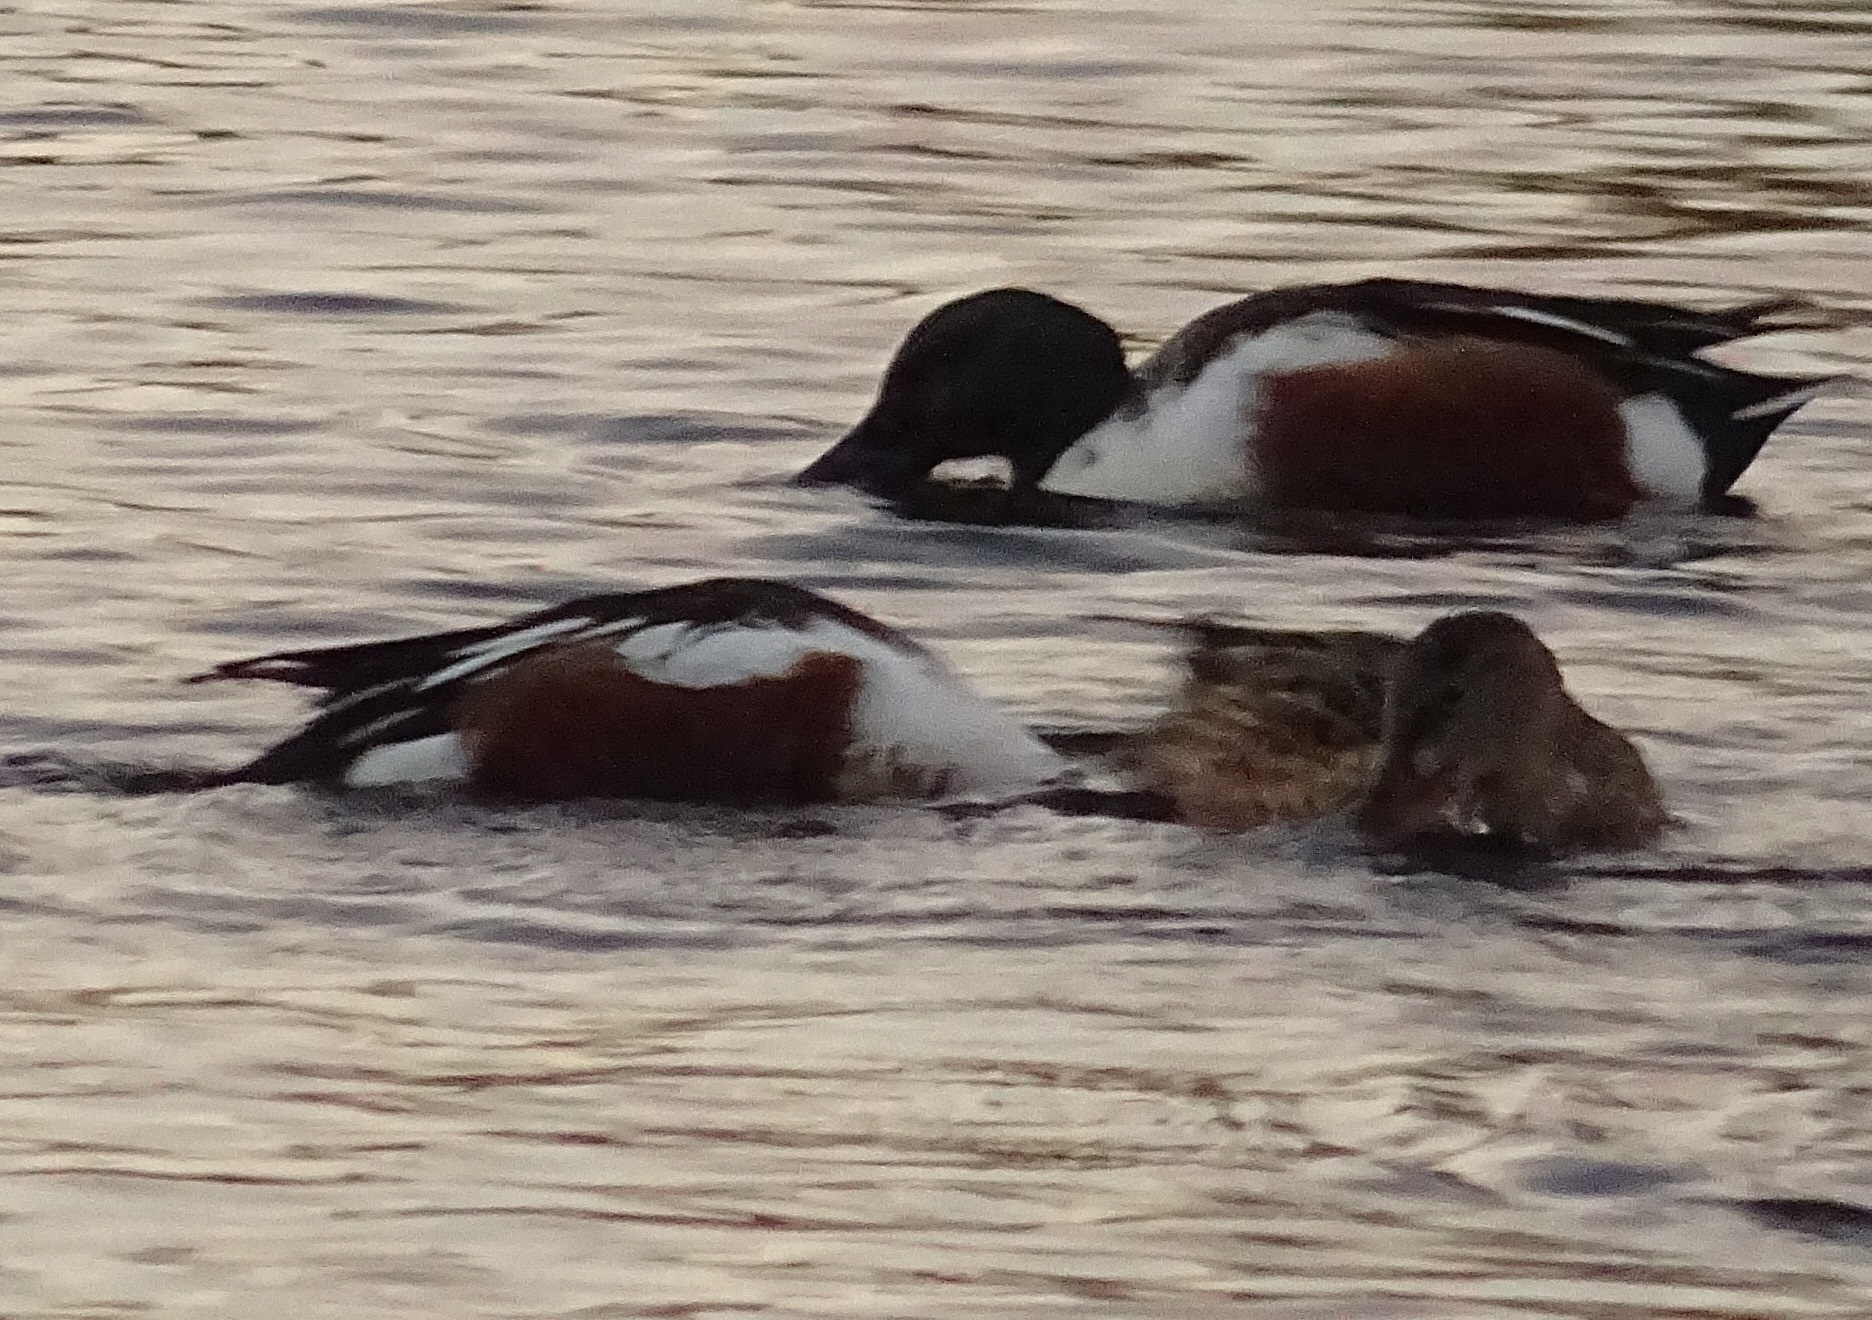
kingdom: Animalia
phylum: Chordata
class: Aves
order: Anseriformes
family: Anatidae
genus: Spatula
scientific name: Spatula clypeata
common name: Northern shoveler
